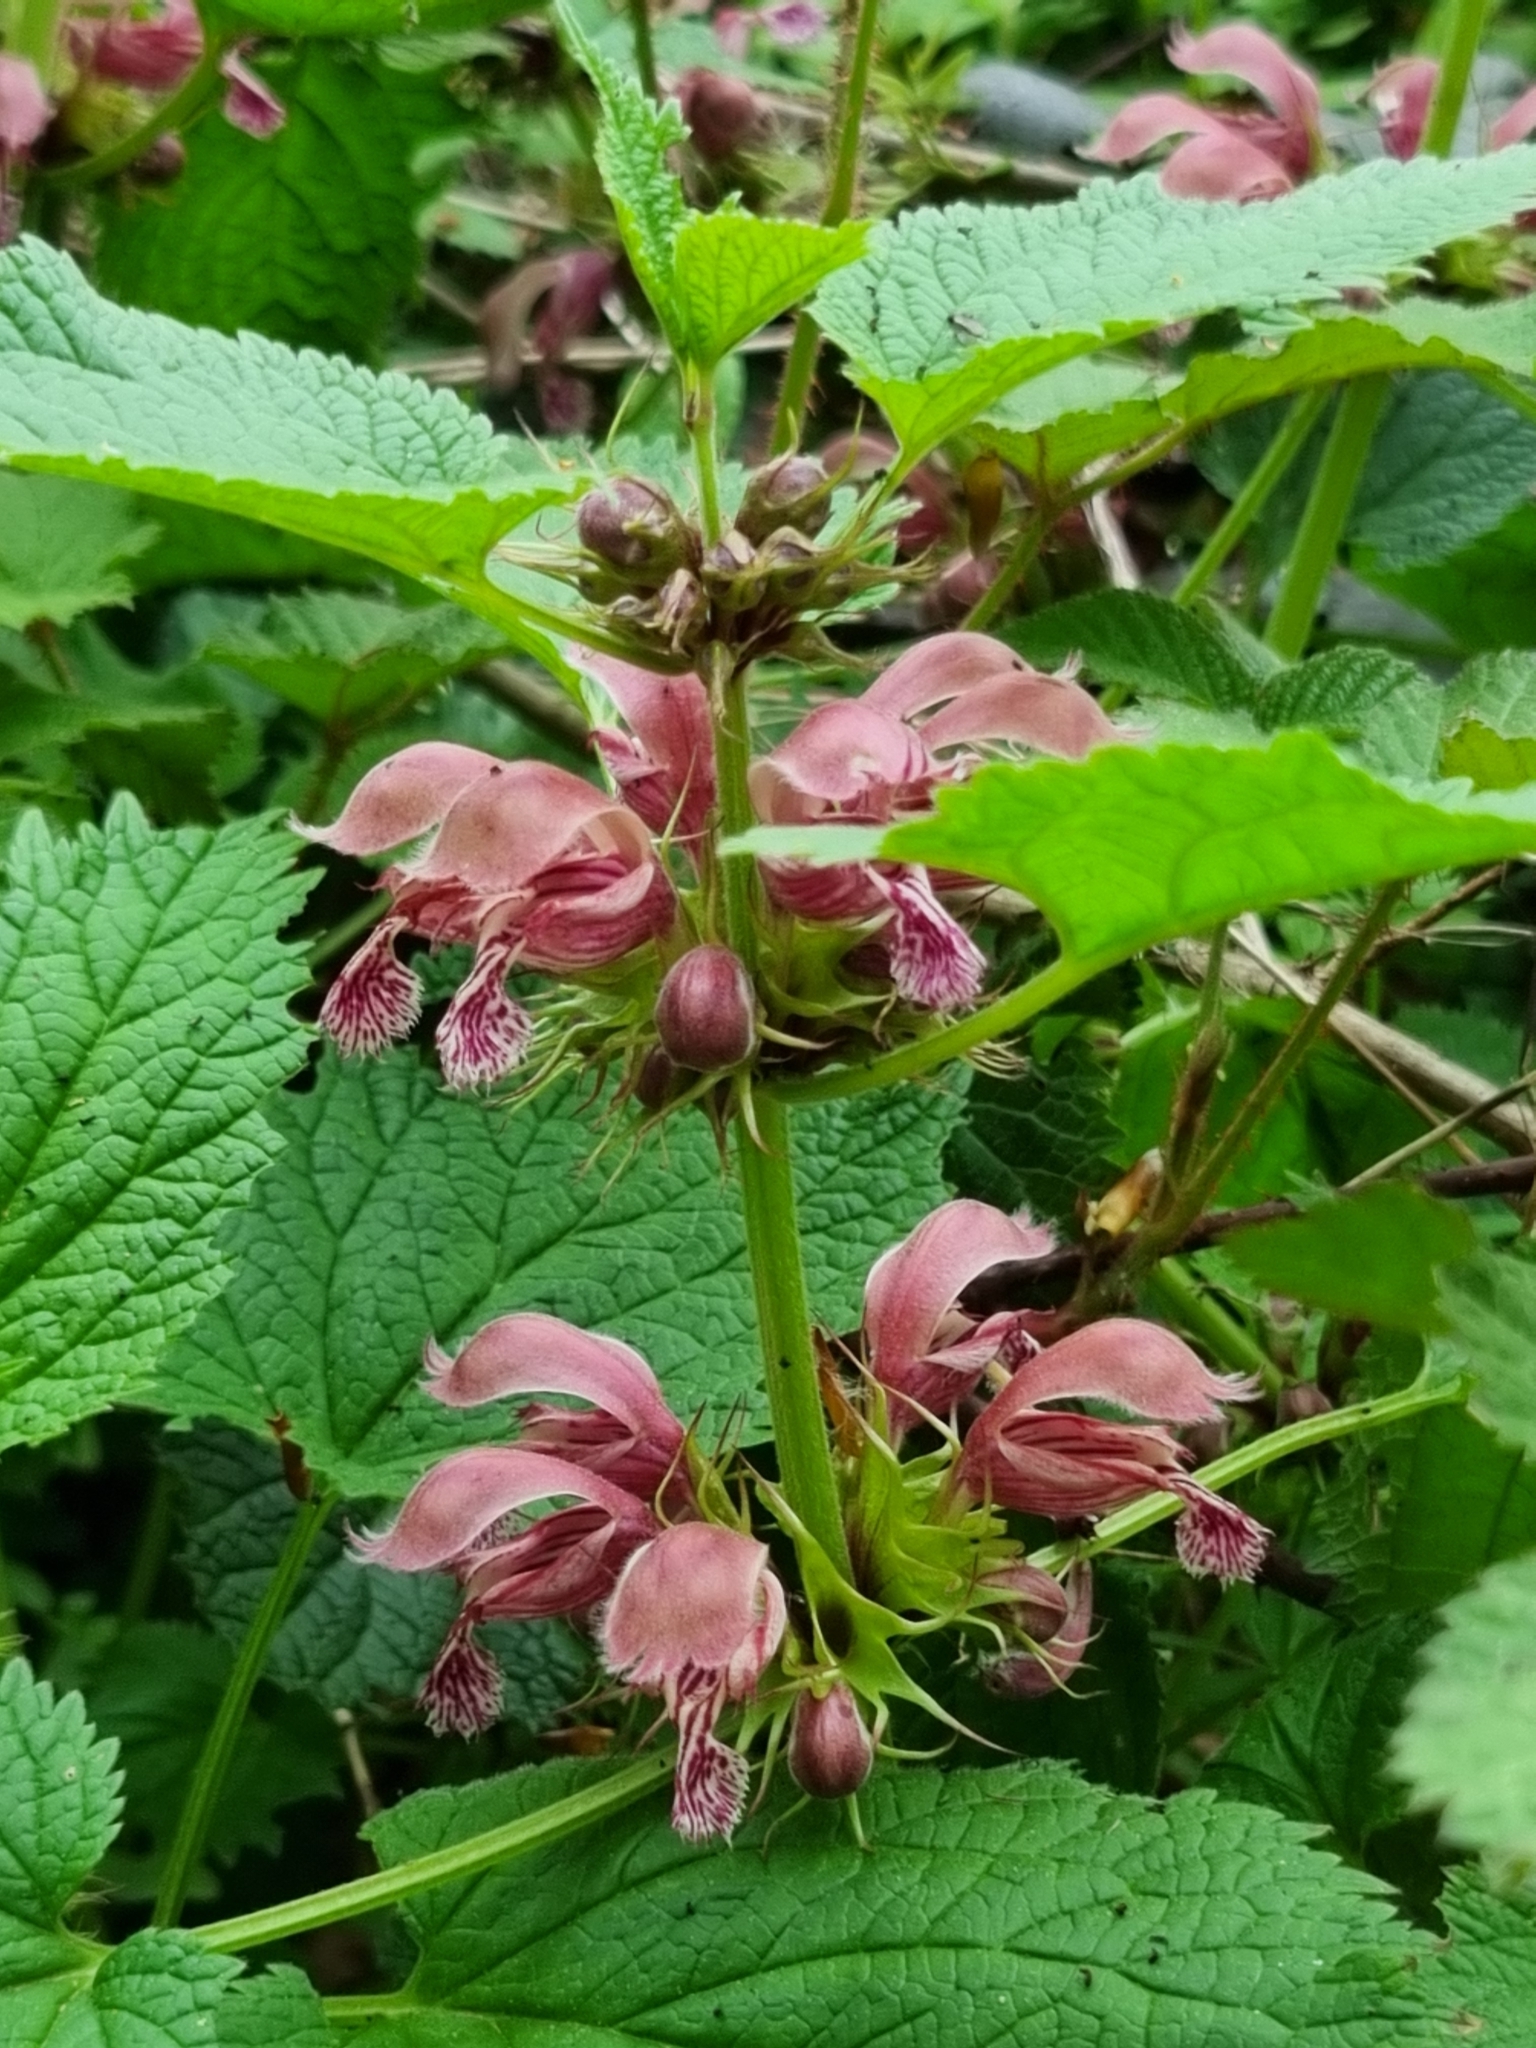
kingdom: Plantae
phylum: Tracheophyta
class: Magnoliopsida
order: Lamiales
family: Lamiaceae
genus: Lamium
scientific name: Lamium orvala
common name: Balm-leaved archangel
